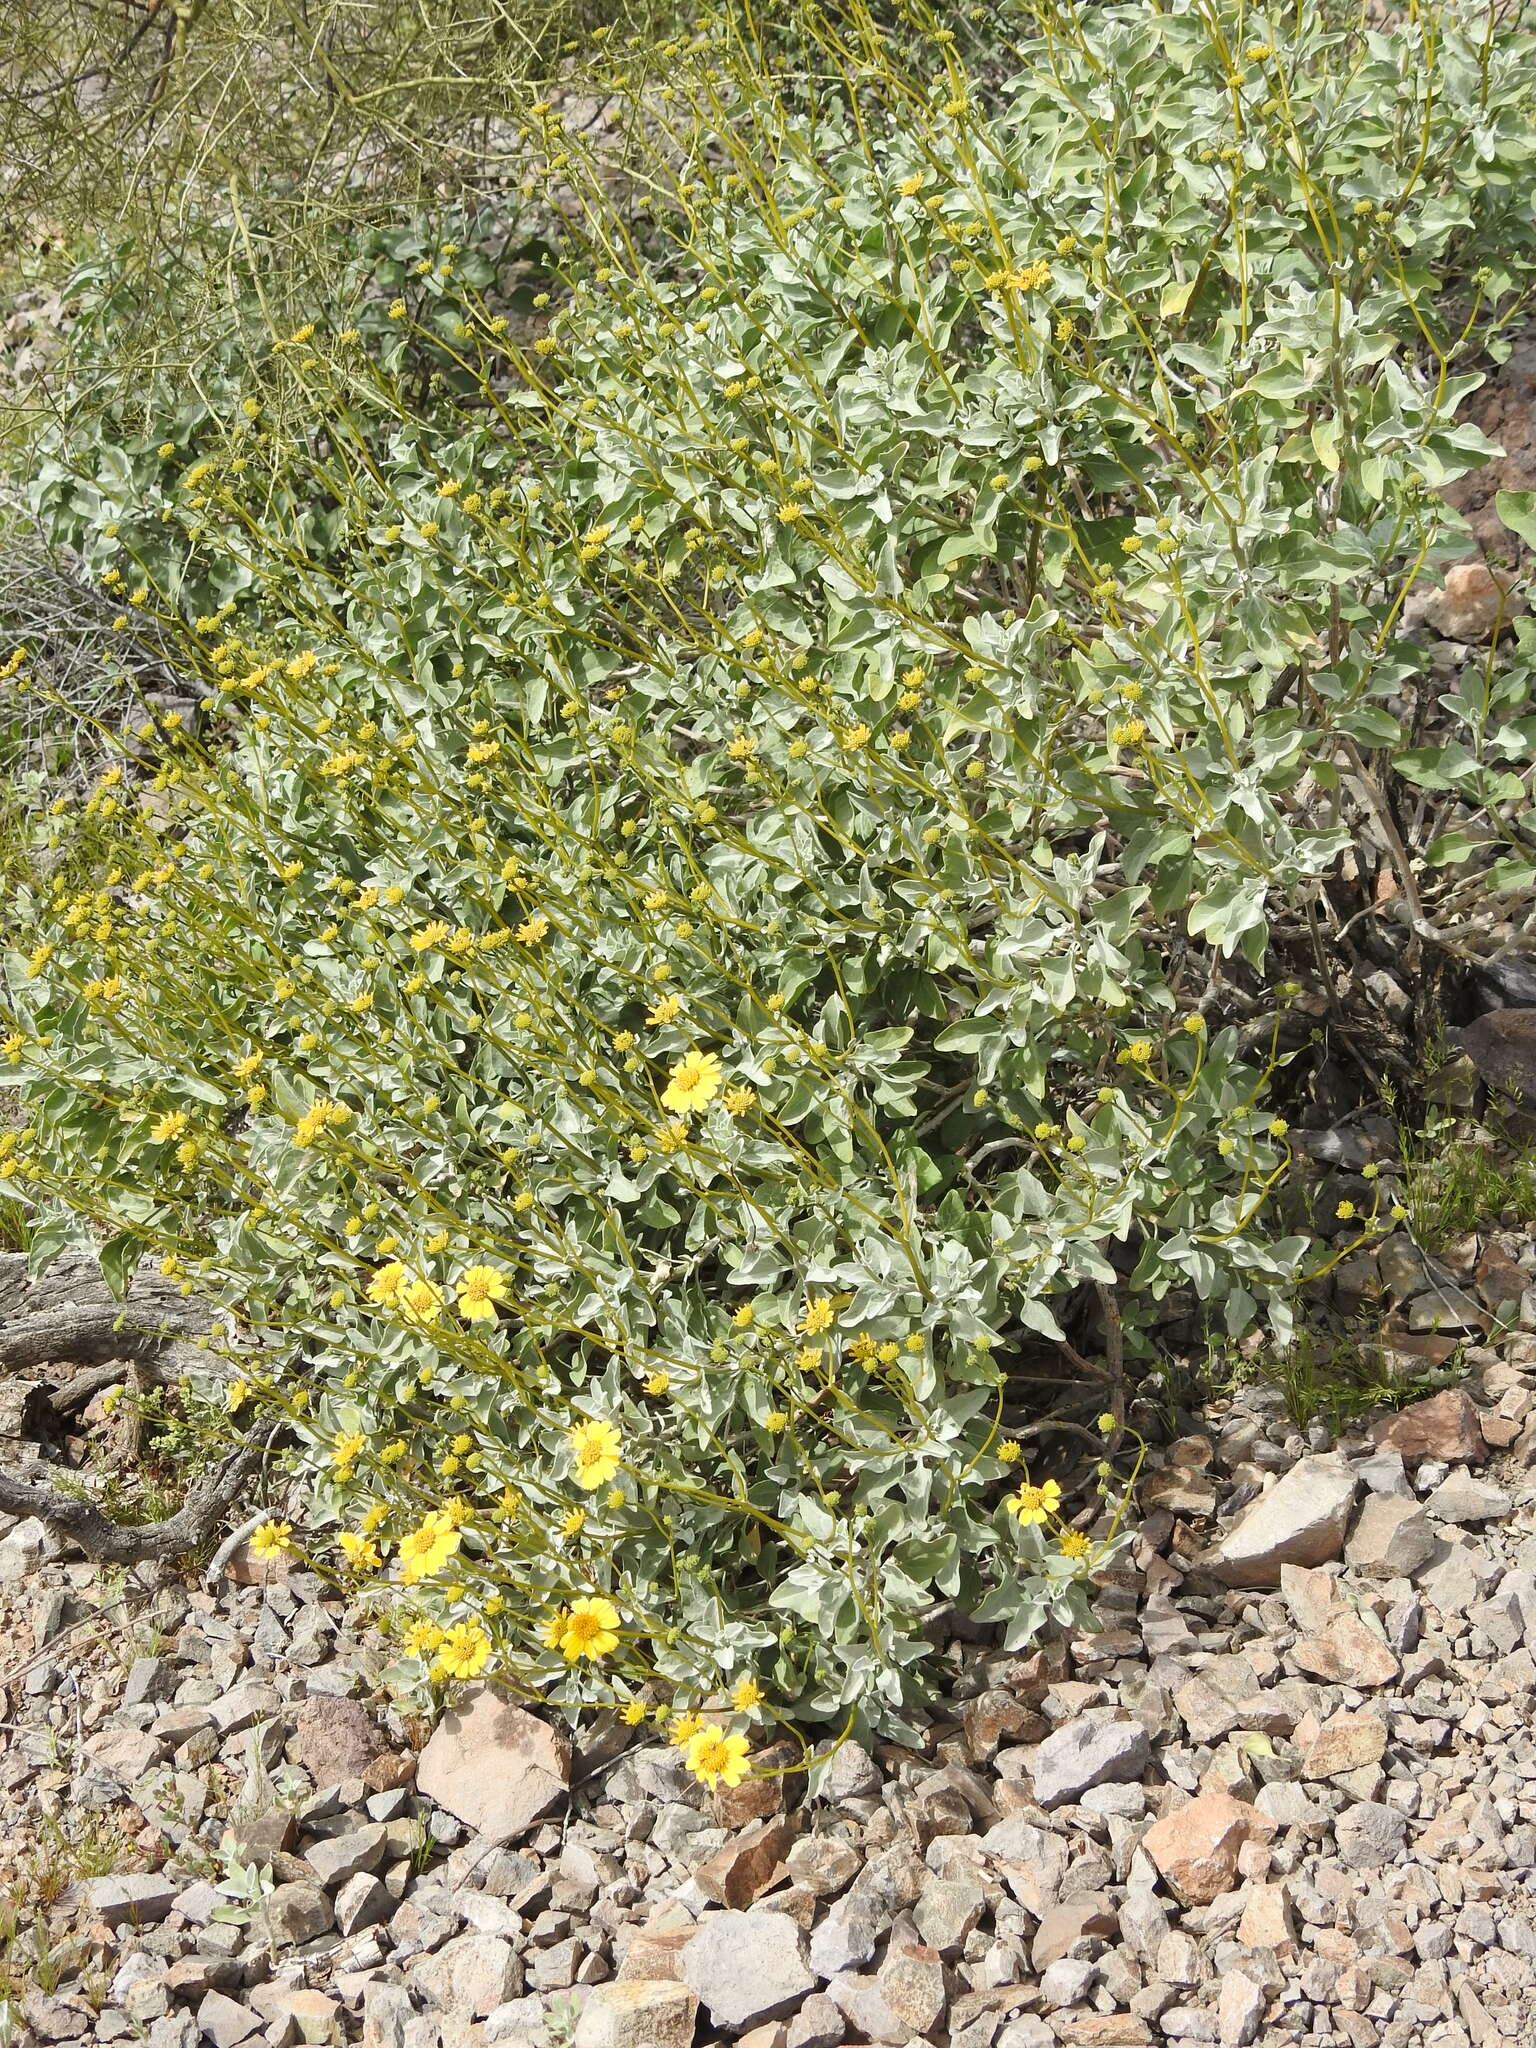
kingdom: Plantae
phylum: Tracheophyta
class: Magnoliopsida
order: Asterales
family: Asteraceae
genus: Encelia
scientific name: Encelia farinosa
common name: Brittlebush
